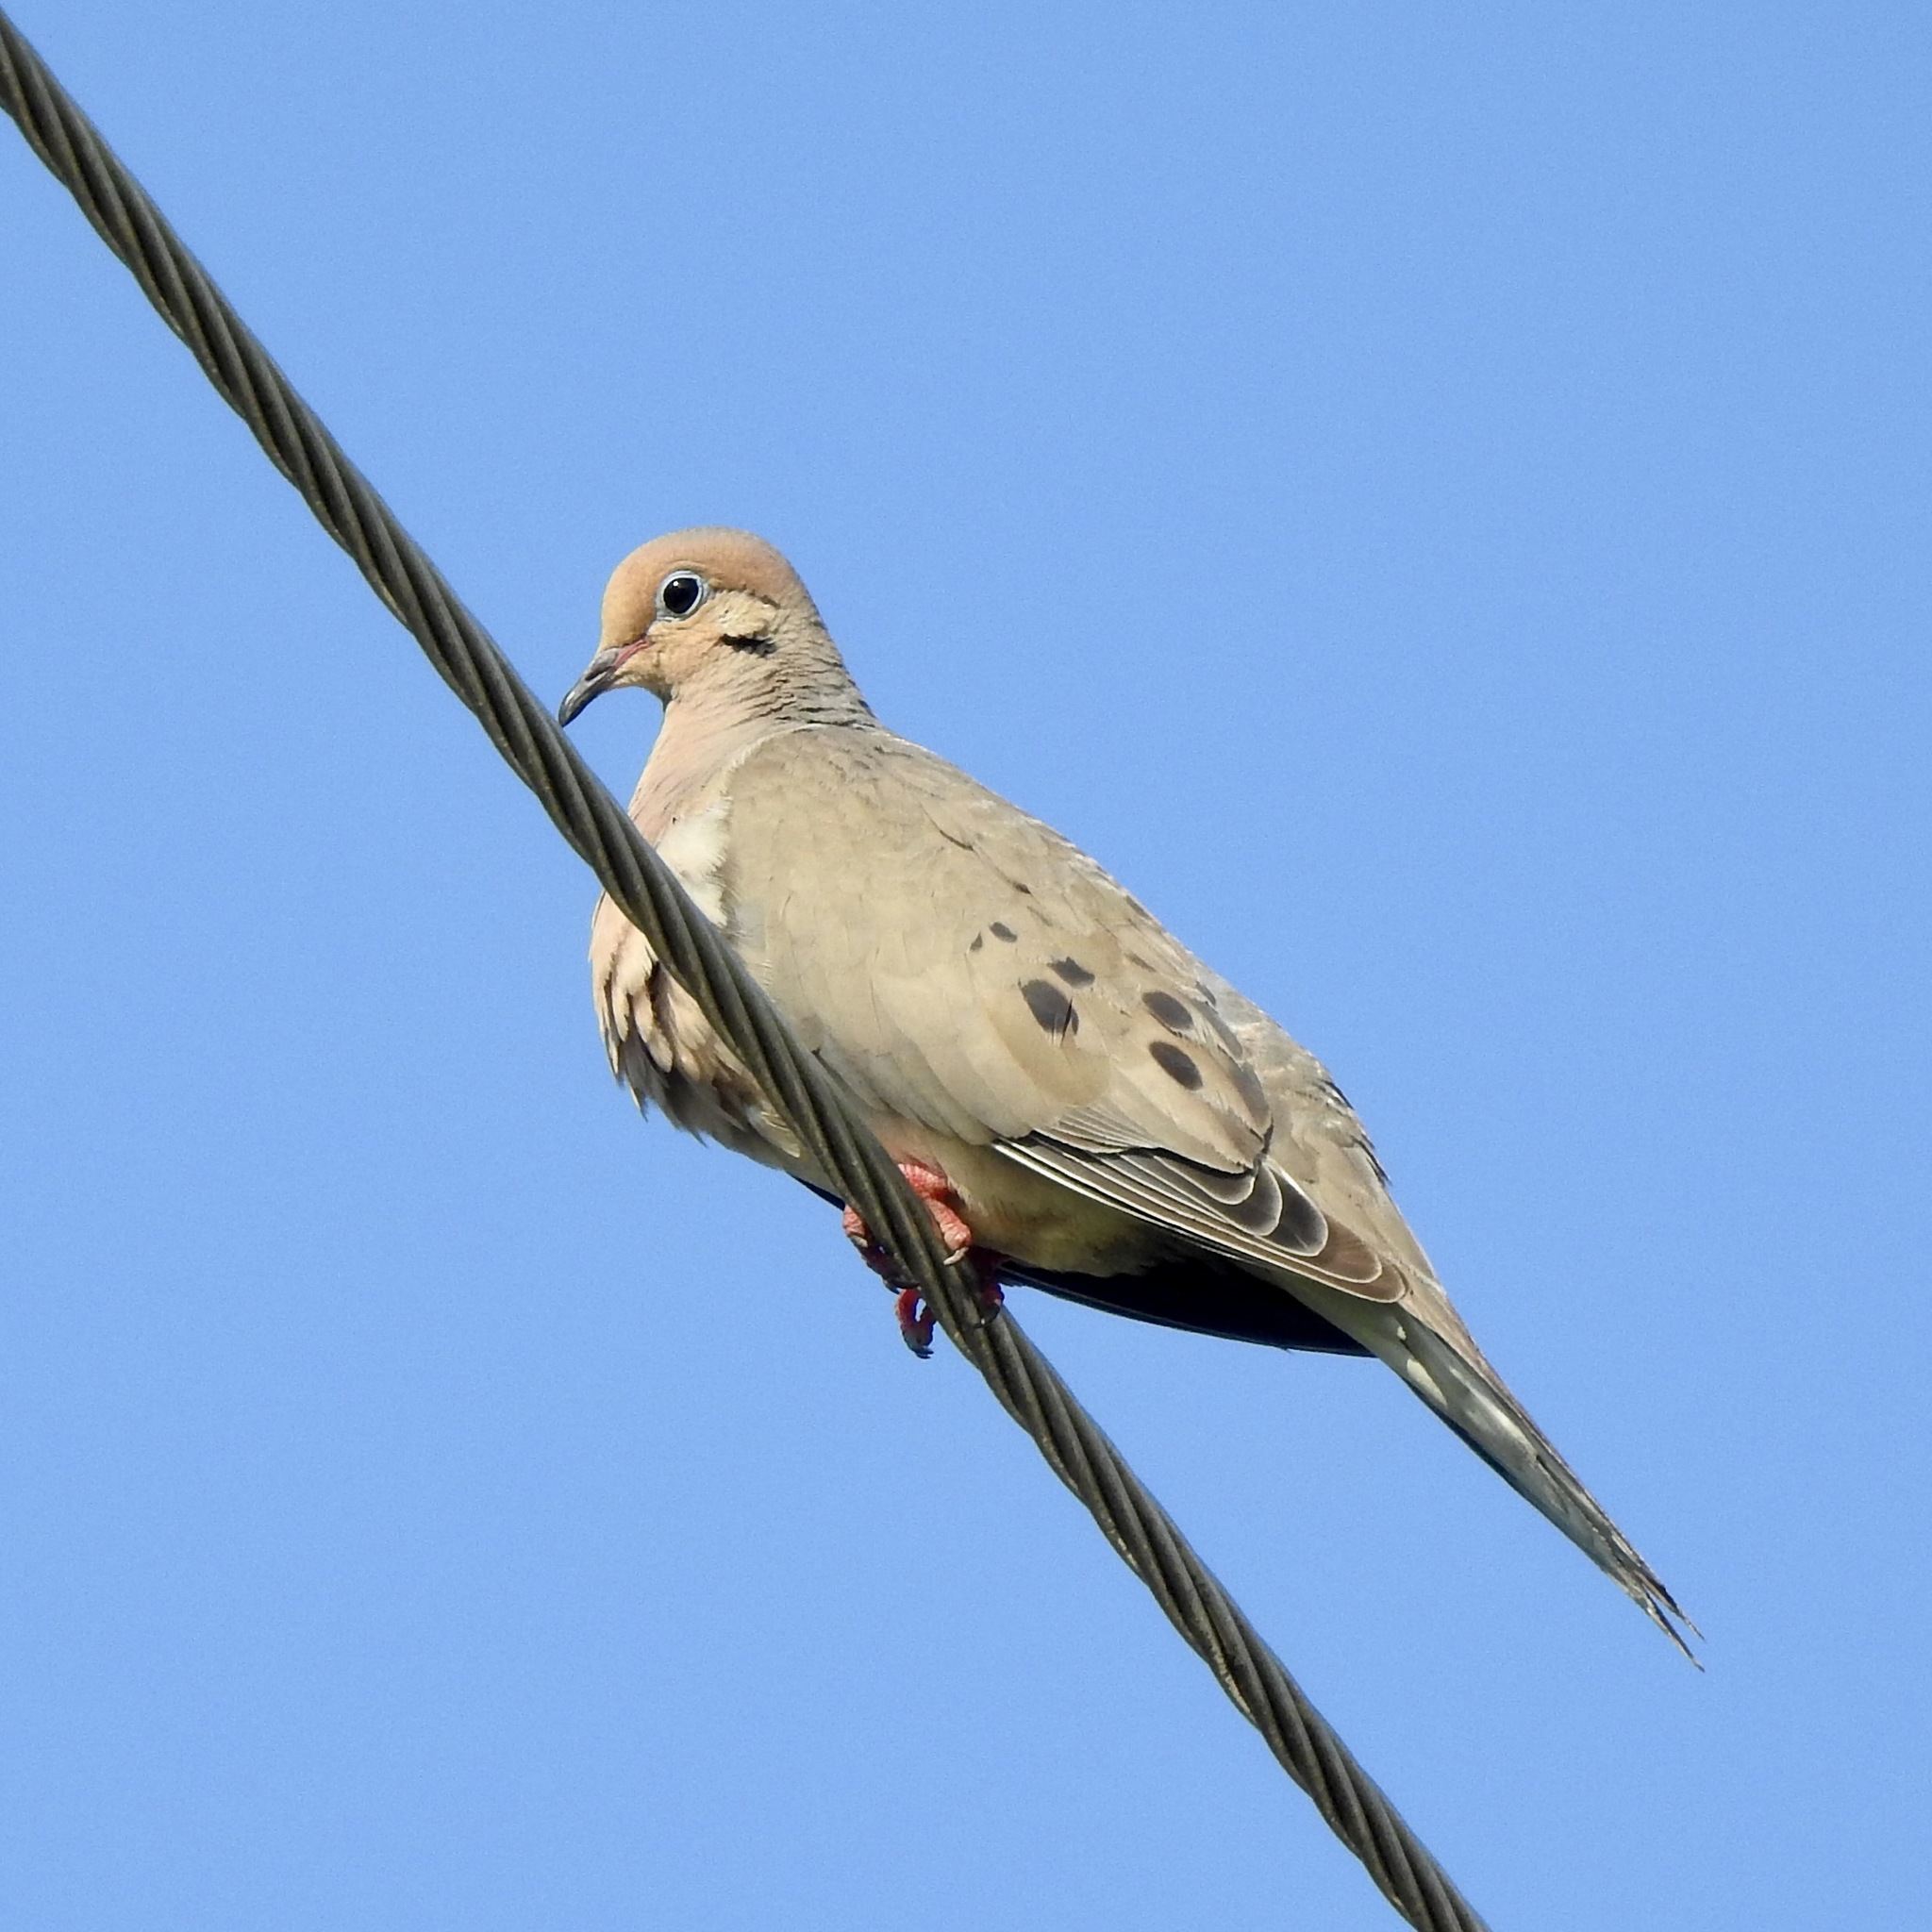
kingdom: Animalia
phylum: Chordata
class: Aves
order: Columbiformes
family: Columbidae
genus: Zenaida
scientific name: Zenaida macroura
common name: Mourning dove
